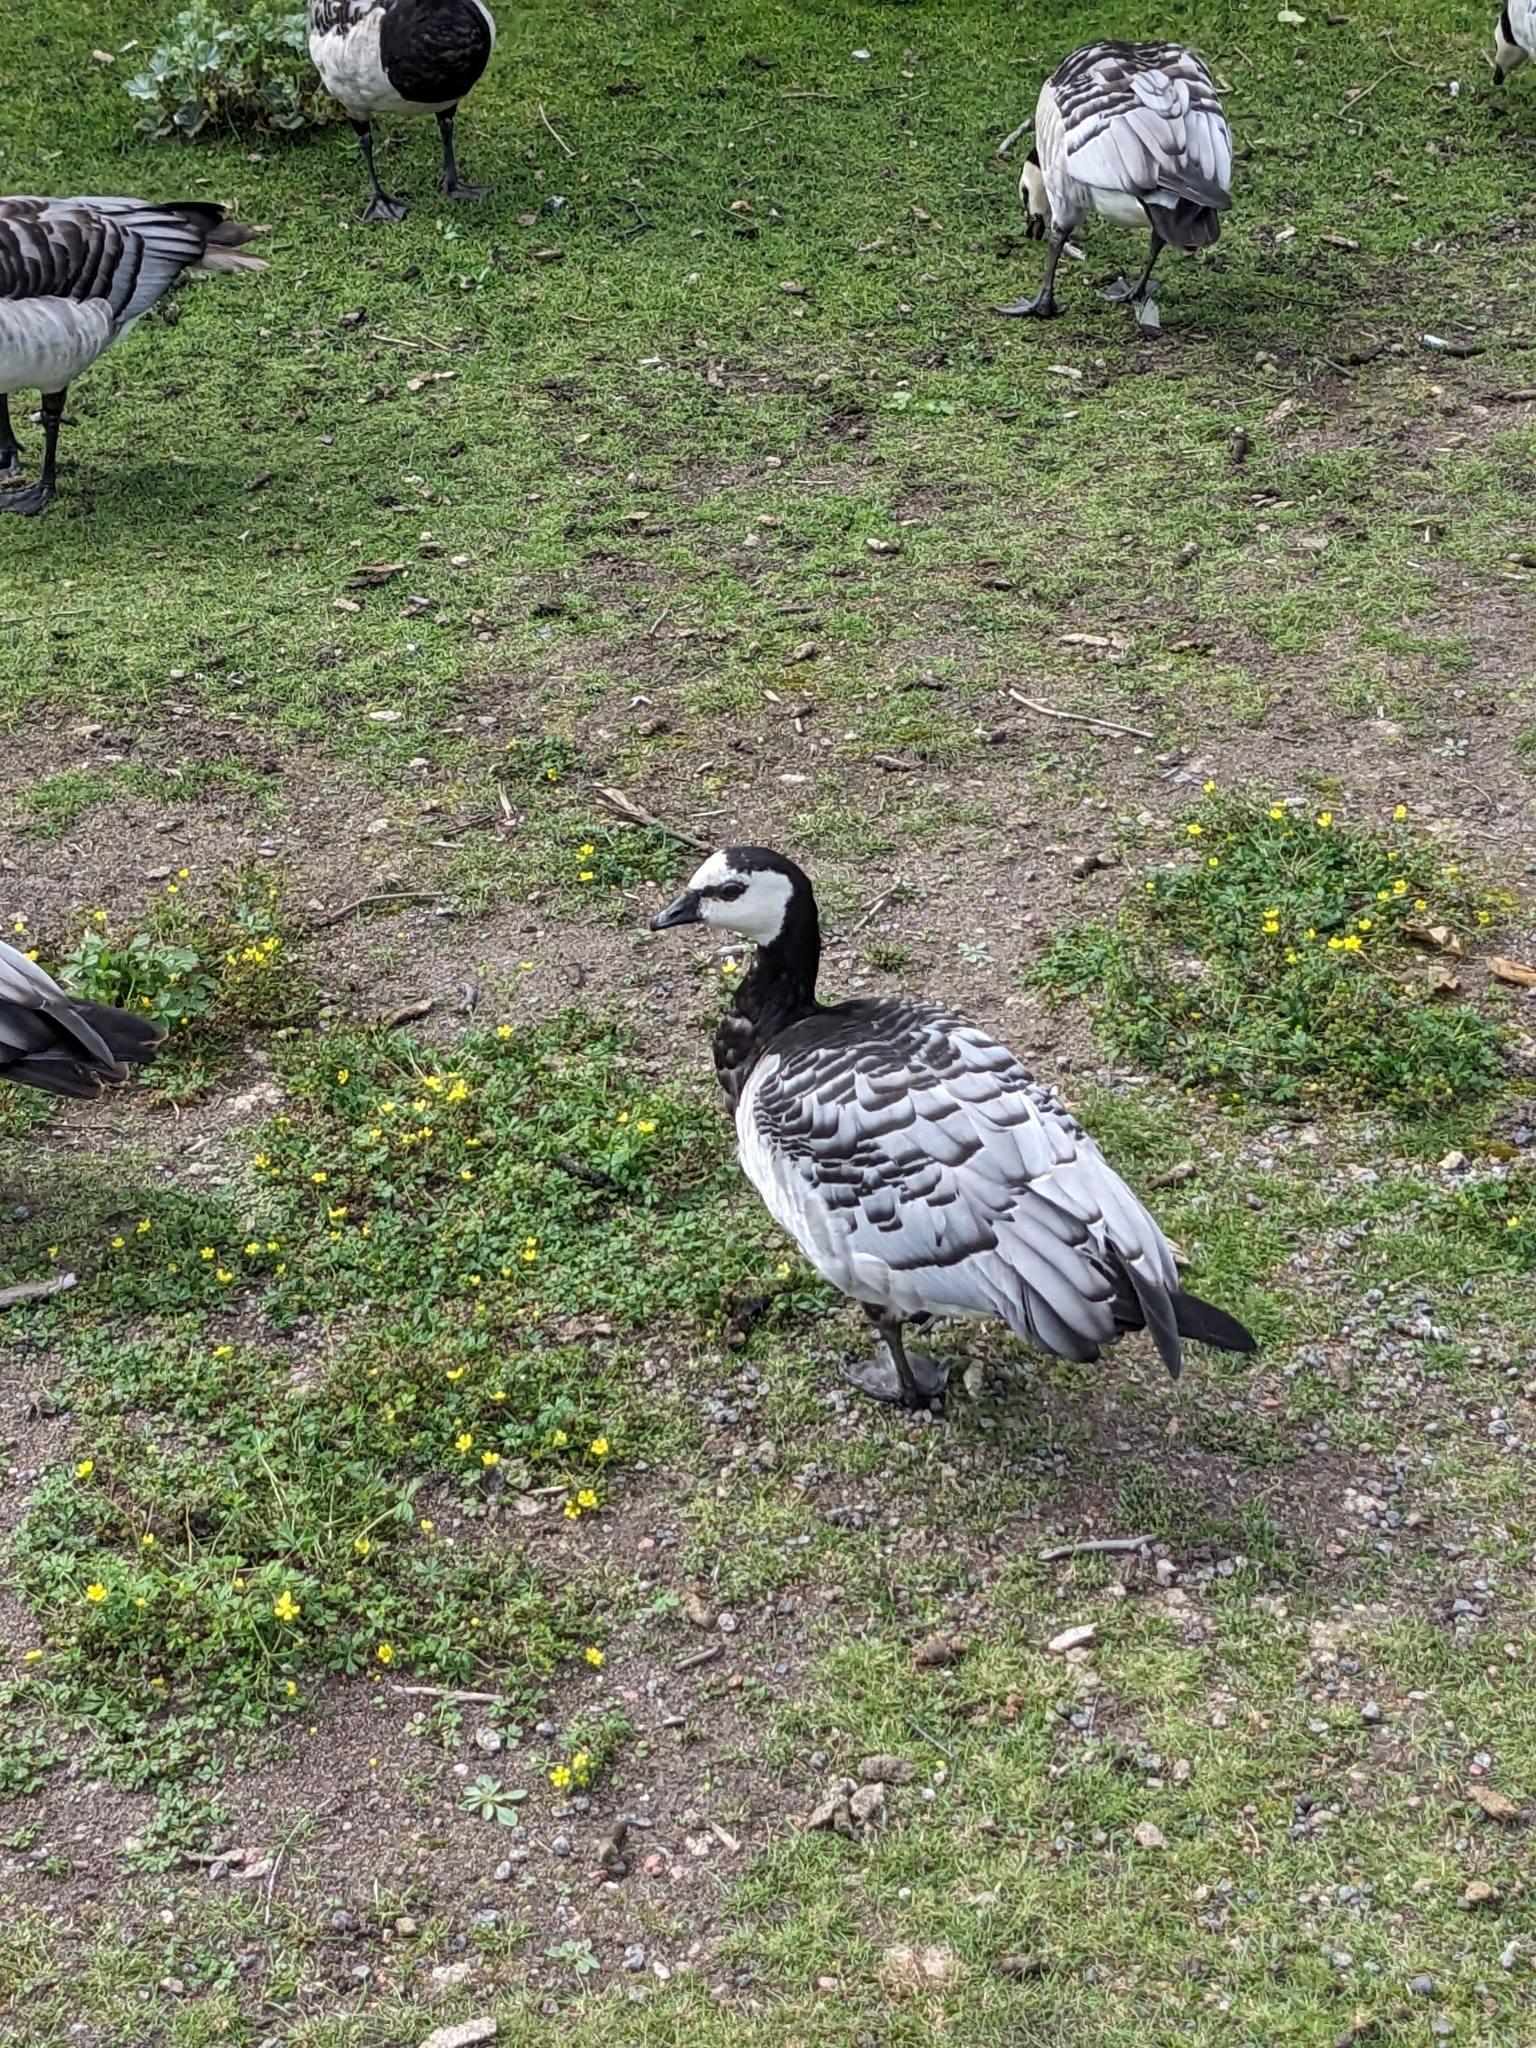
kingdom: Animalia
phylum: Chordata
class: Aves
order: Anseriformes
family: Anatidae
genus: Branta
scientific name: Branta leucopsis
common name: Barnacle goose
